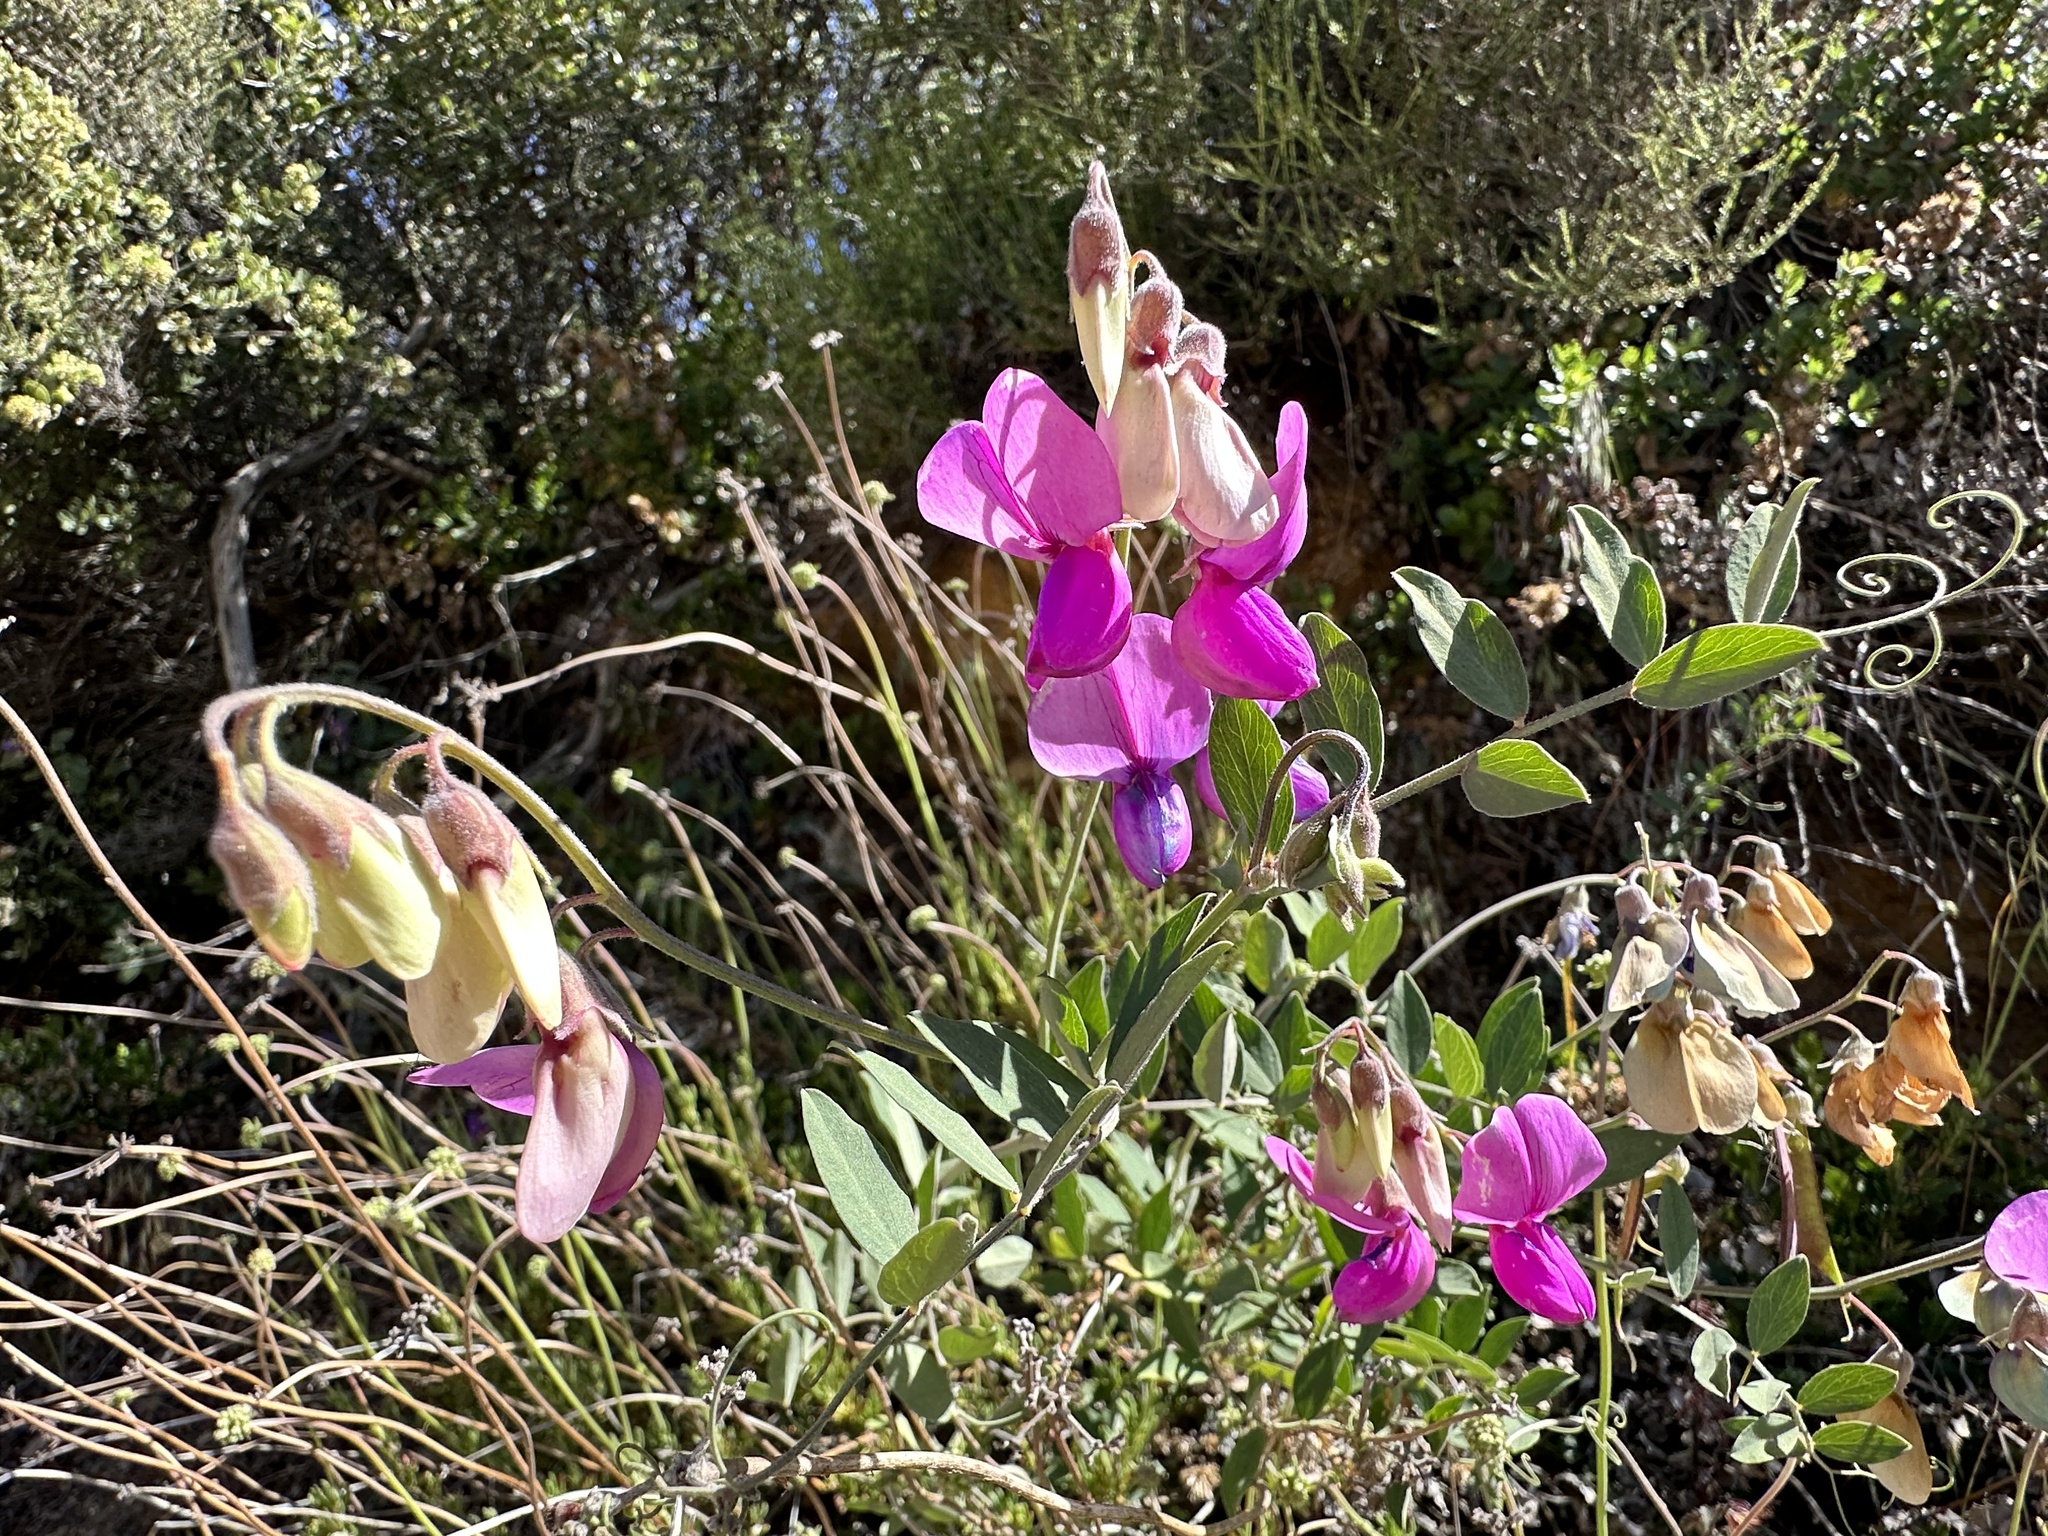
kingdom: Plantae
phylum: Tracheophyta
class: Magnoliopsida
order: Fabales
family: Fabaceae
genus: Lathyrus
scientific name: Lathyrus vestitus
